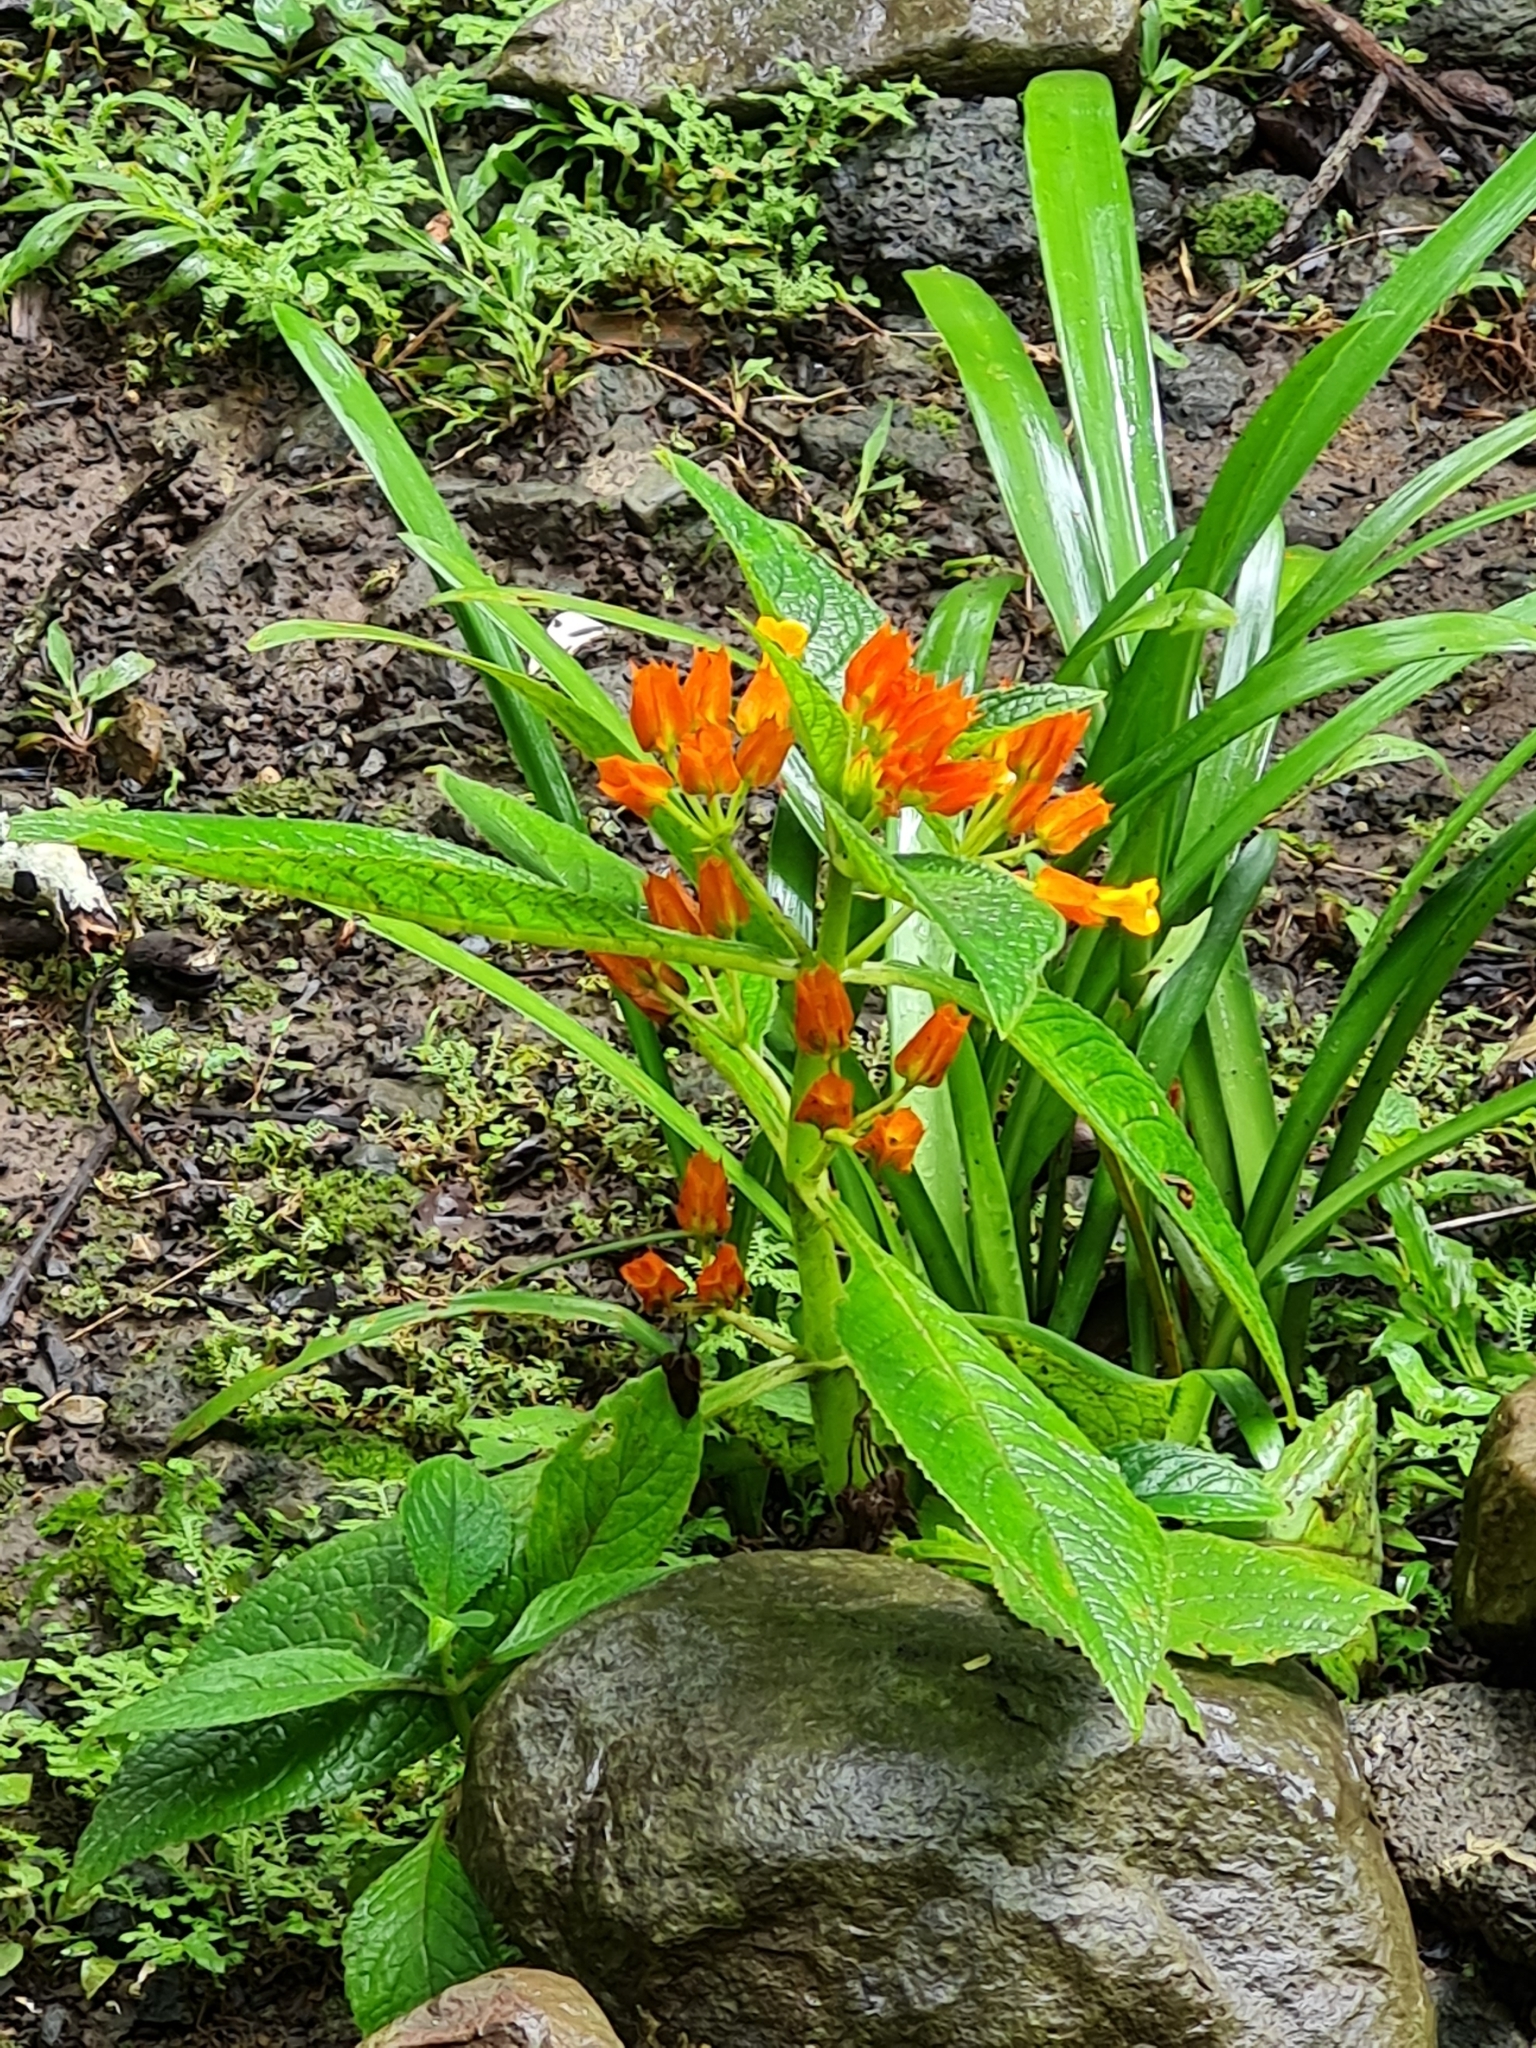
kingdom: Plantae
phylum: Tracheophyta
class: Magnoliopsida
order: Lamiales
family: Gesneriaceae
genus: Chrysothemis
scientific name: Chrysothemis pulchella
